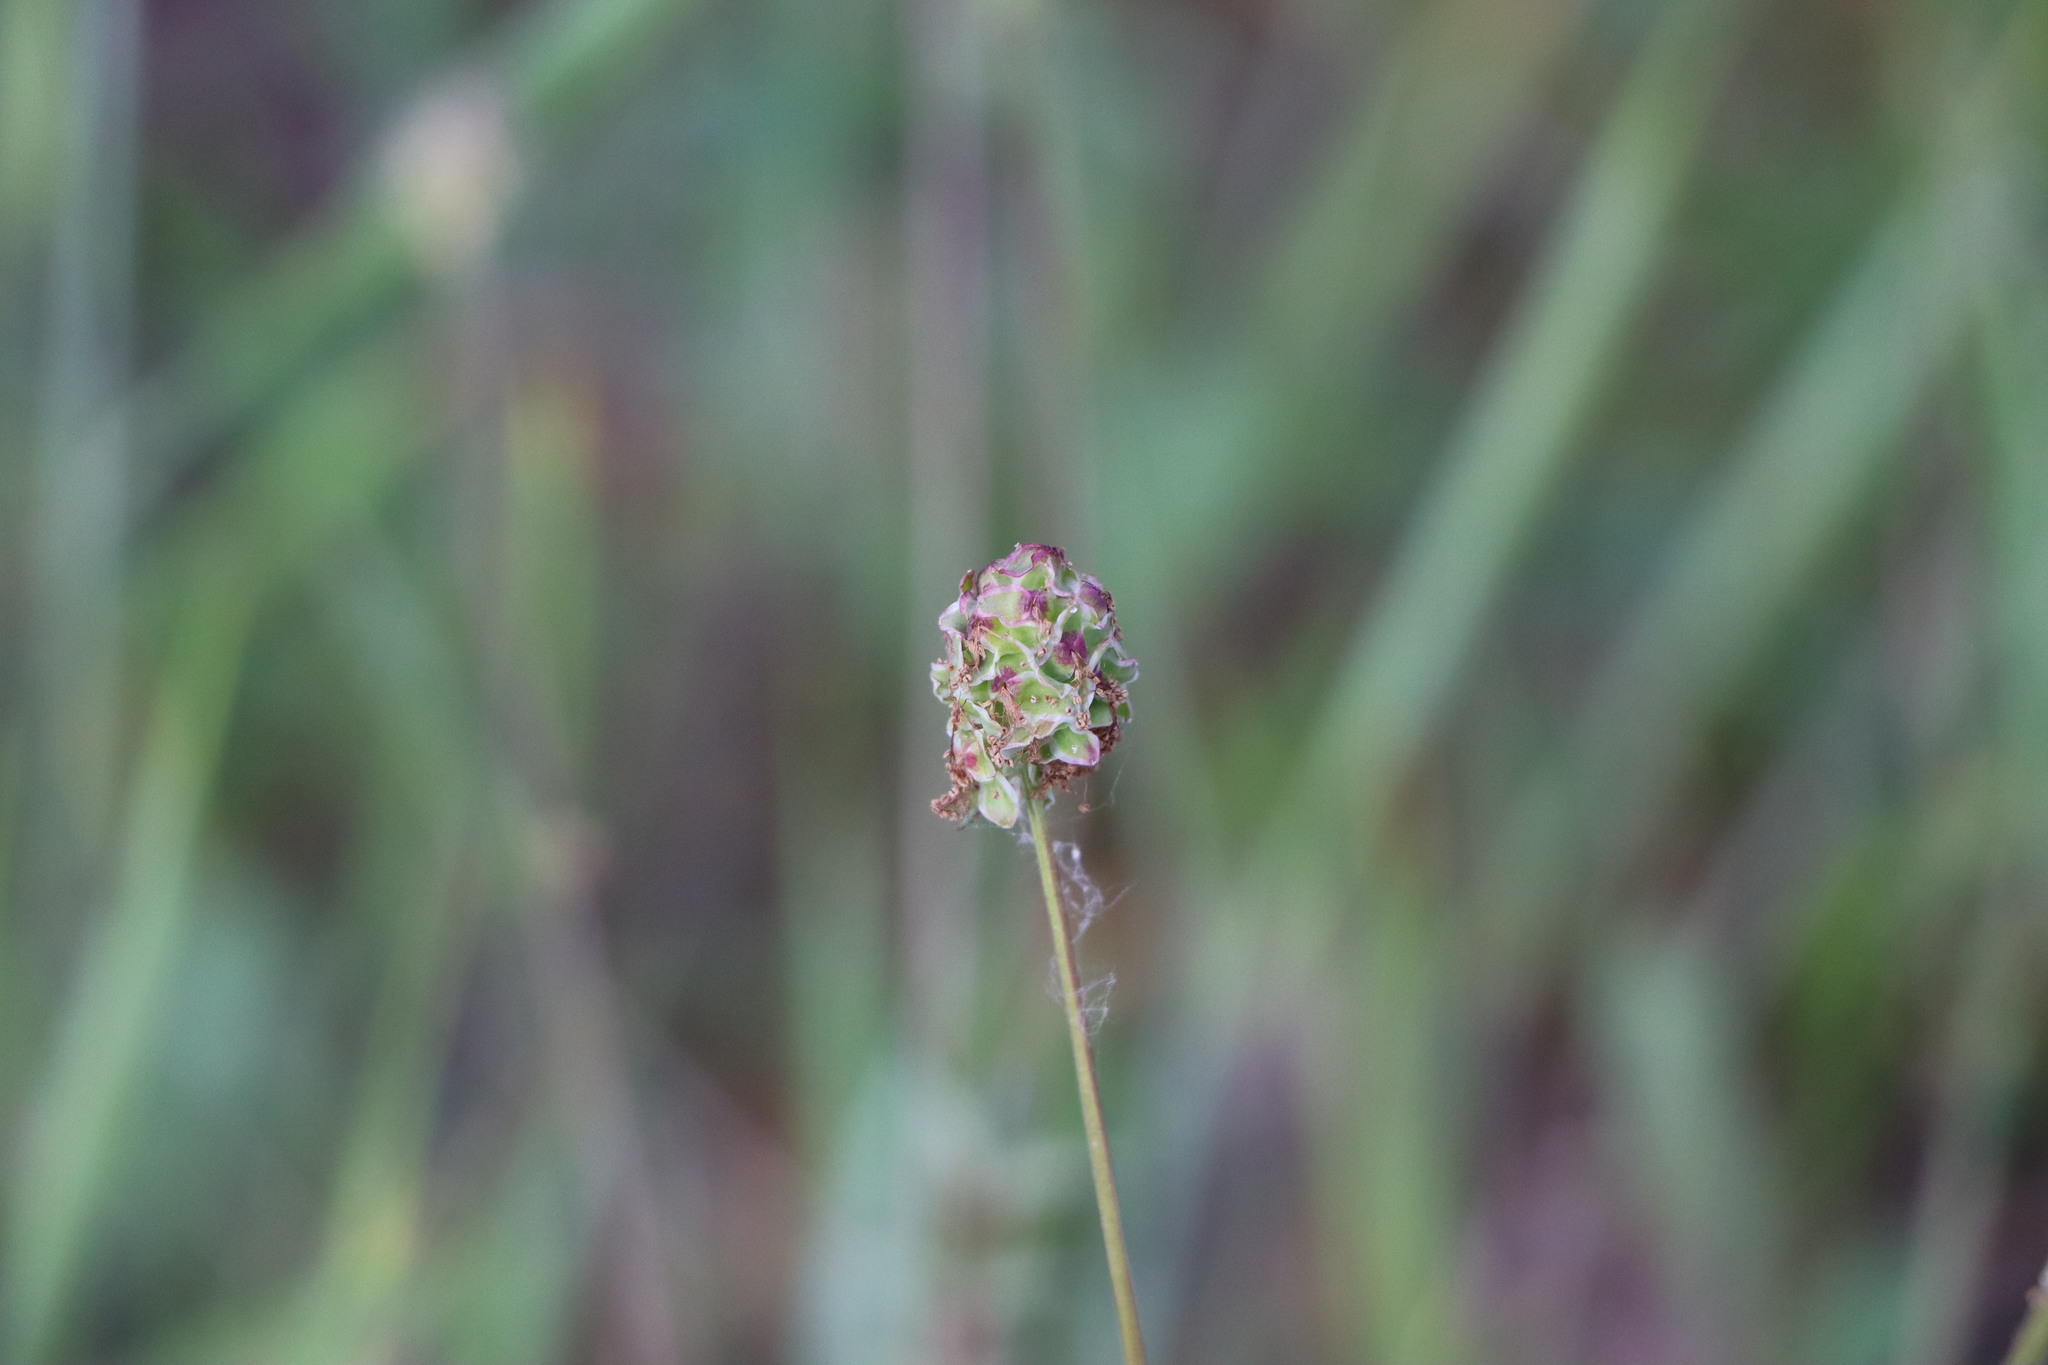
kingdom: Plantae
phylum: Tracheophyta
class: Magnoliopsida
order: Rosales
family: Rosaceae
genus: Poterium
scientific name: Poterium sanguisorba
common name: Salad burnet
